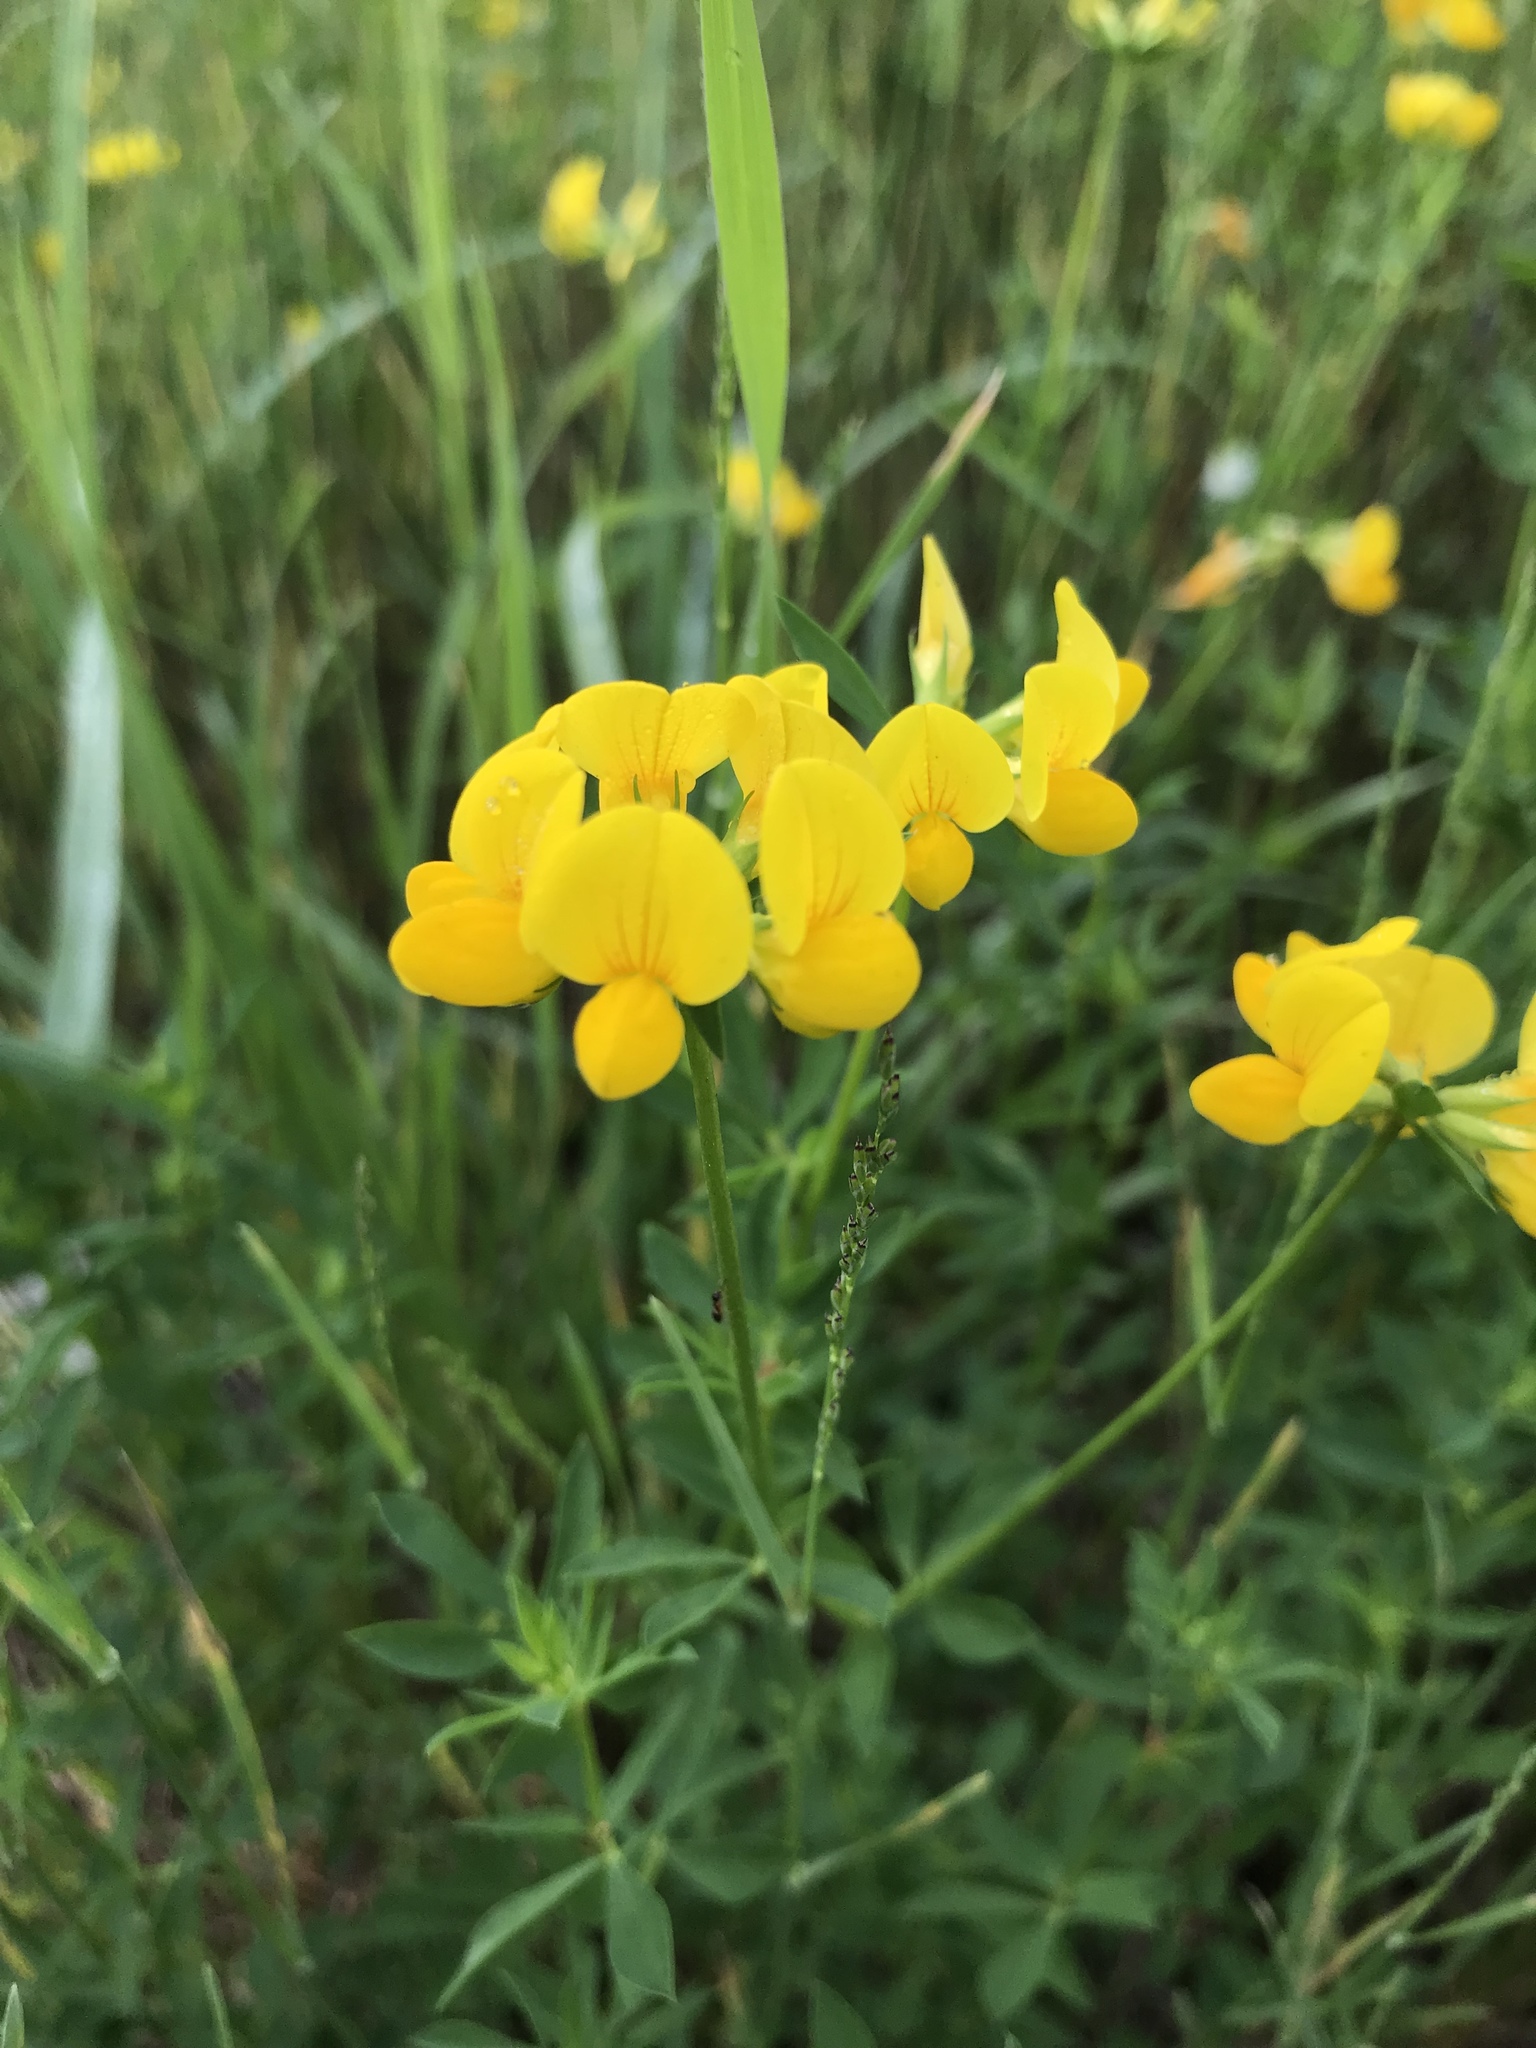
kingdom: Plantae
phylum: Tracheophyta
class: Magnoliopsida
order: Fabales
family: Fabaceae
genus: Lotus
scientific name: Lotus corniculatus
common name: Common bird's-foot-trefoil
